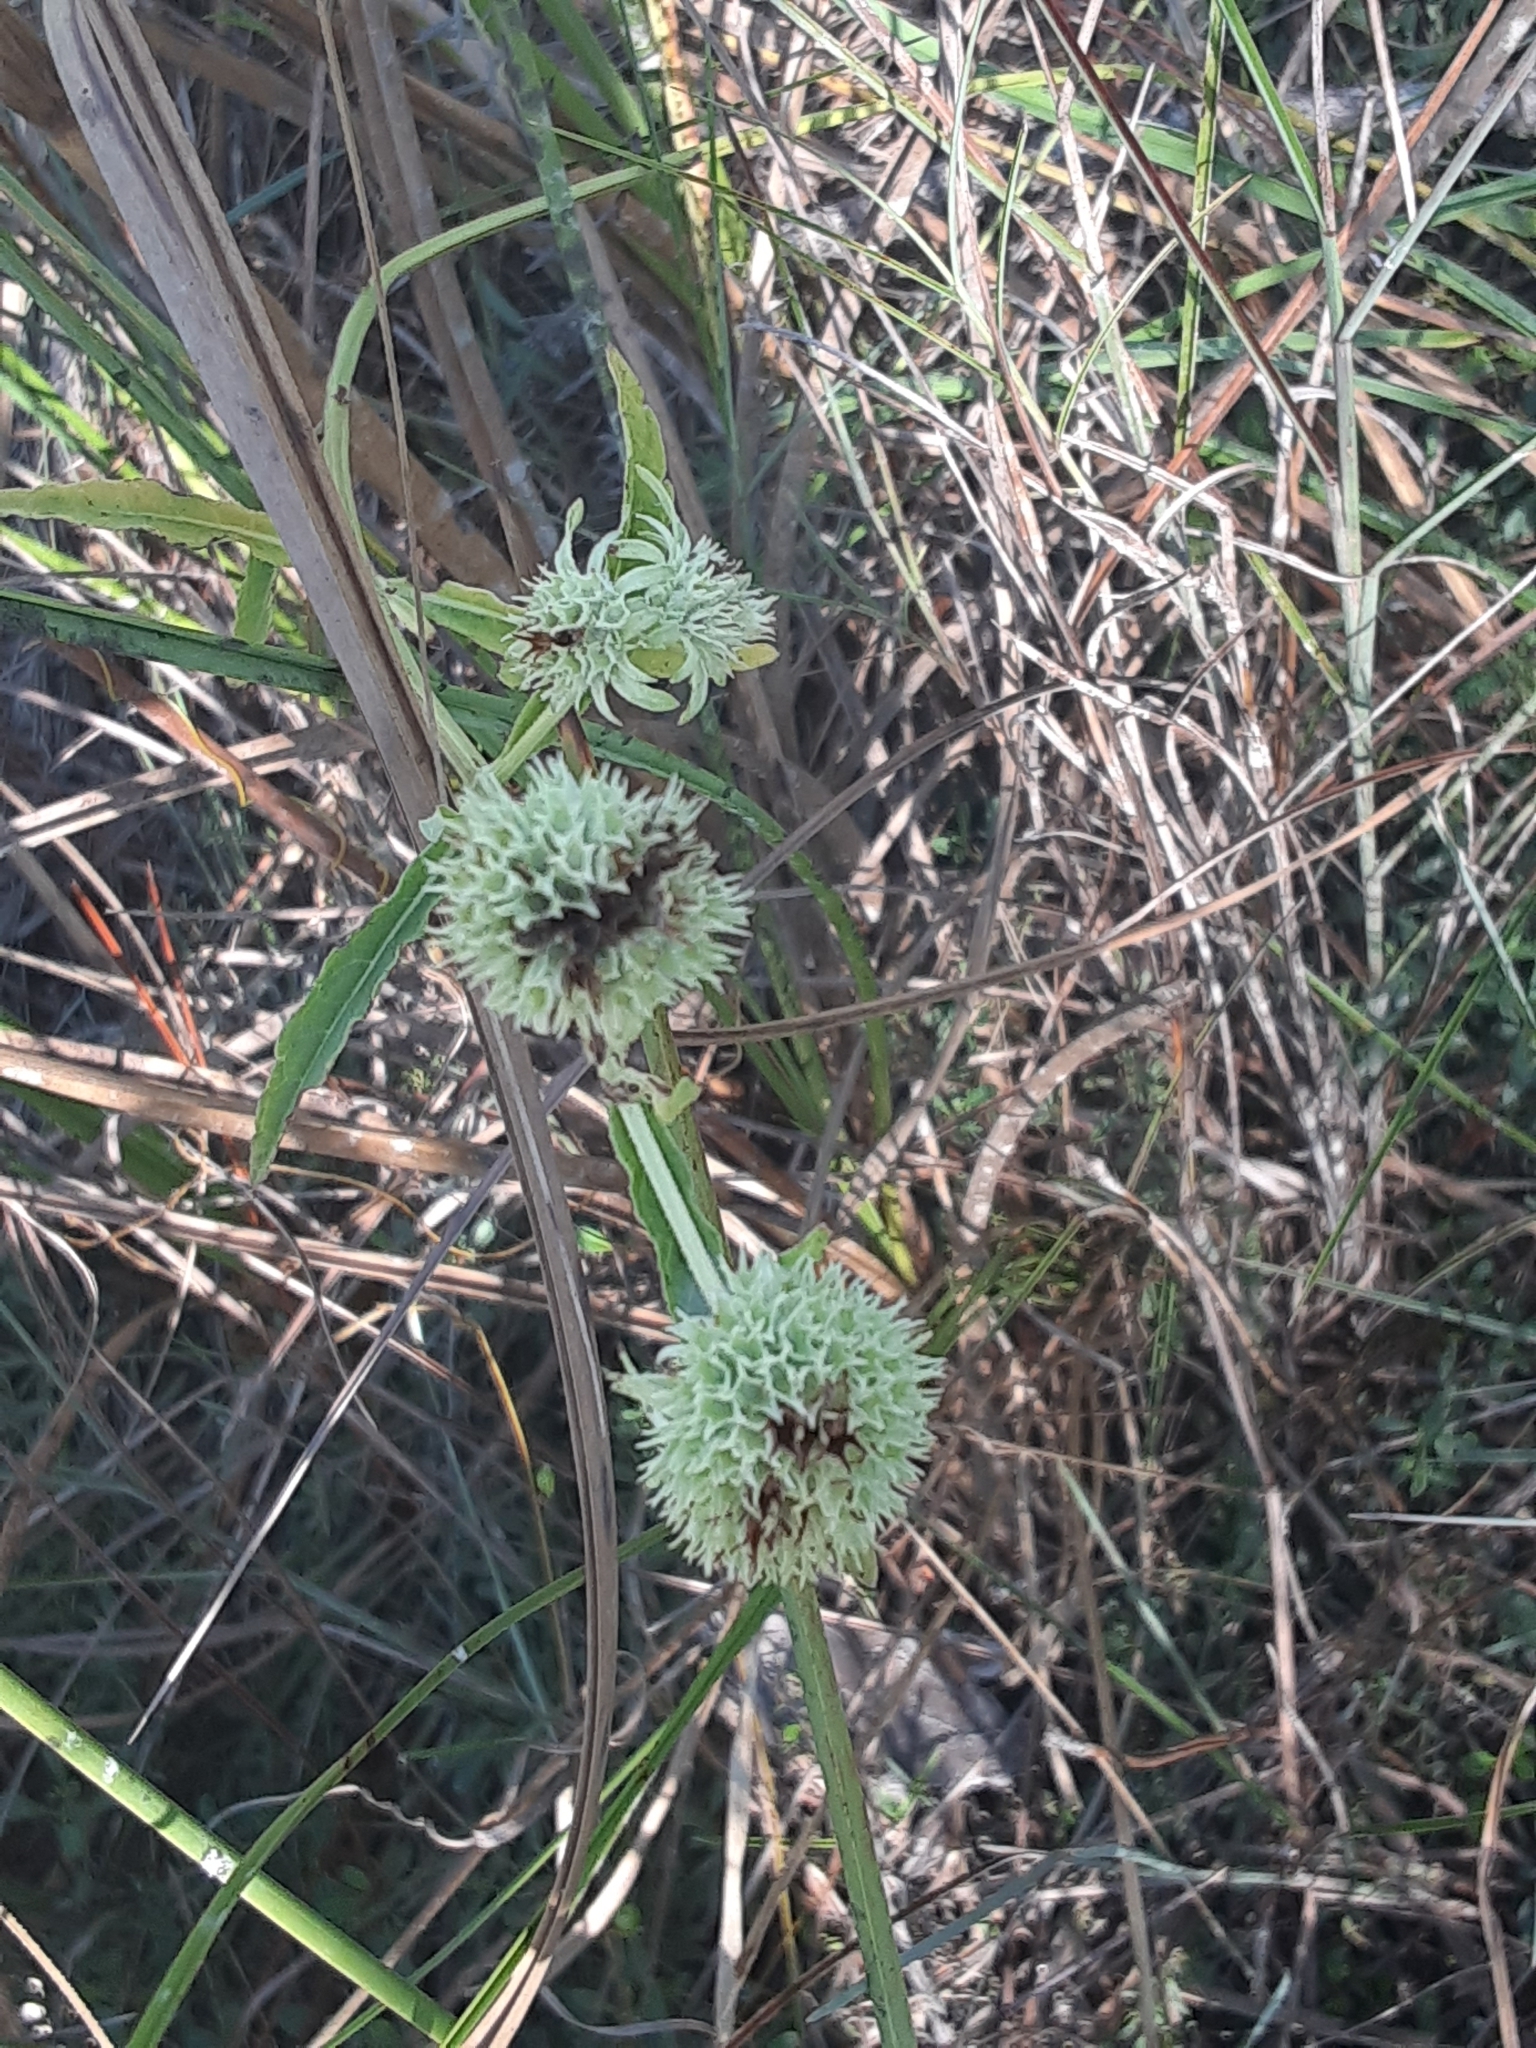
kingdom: Plantae
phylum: Tracheophyta
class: Magnoliopsida
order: Lamiales
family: Lamiaceae
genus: Hyptis
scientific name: Hyptis alata
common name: Cluster bush-mint
